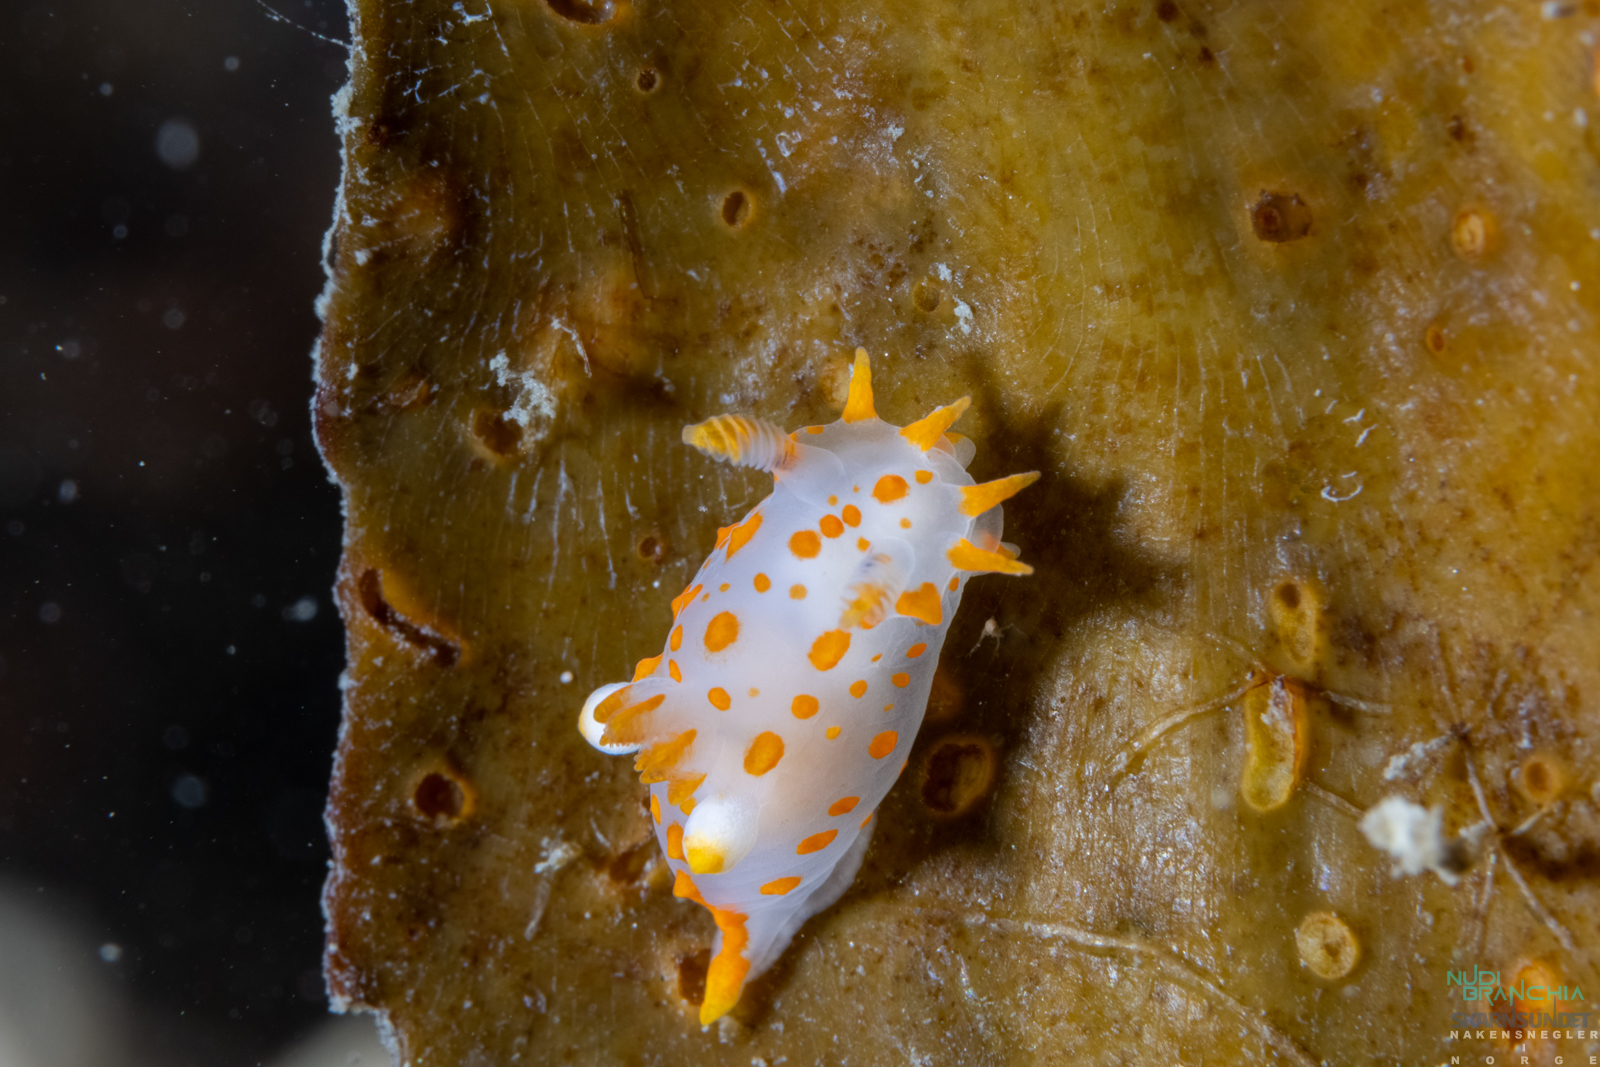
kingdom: Animalia
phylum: Mollusca
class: Gastropoda
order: Nudibranchia
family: Polyceridae
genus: Polycera
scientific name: Polycera quadrilineata
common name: Four-striped polycera
